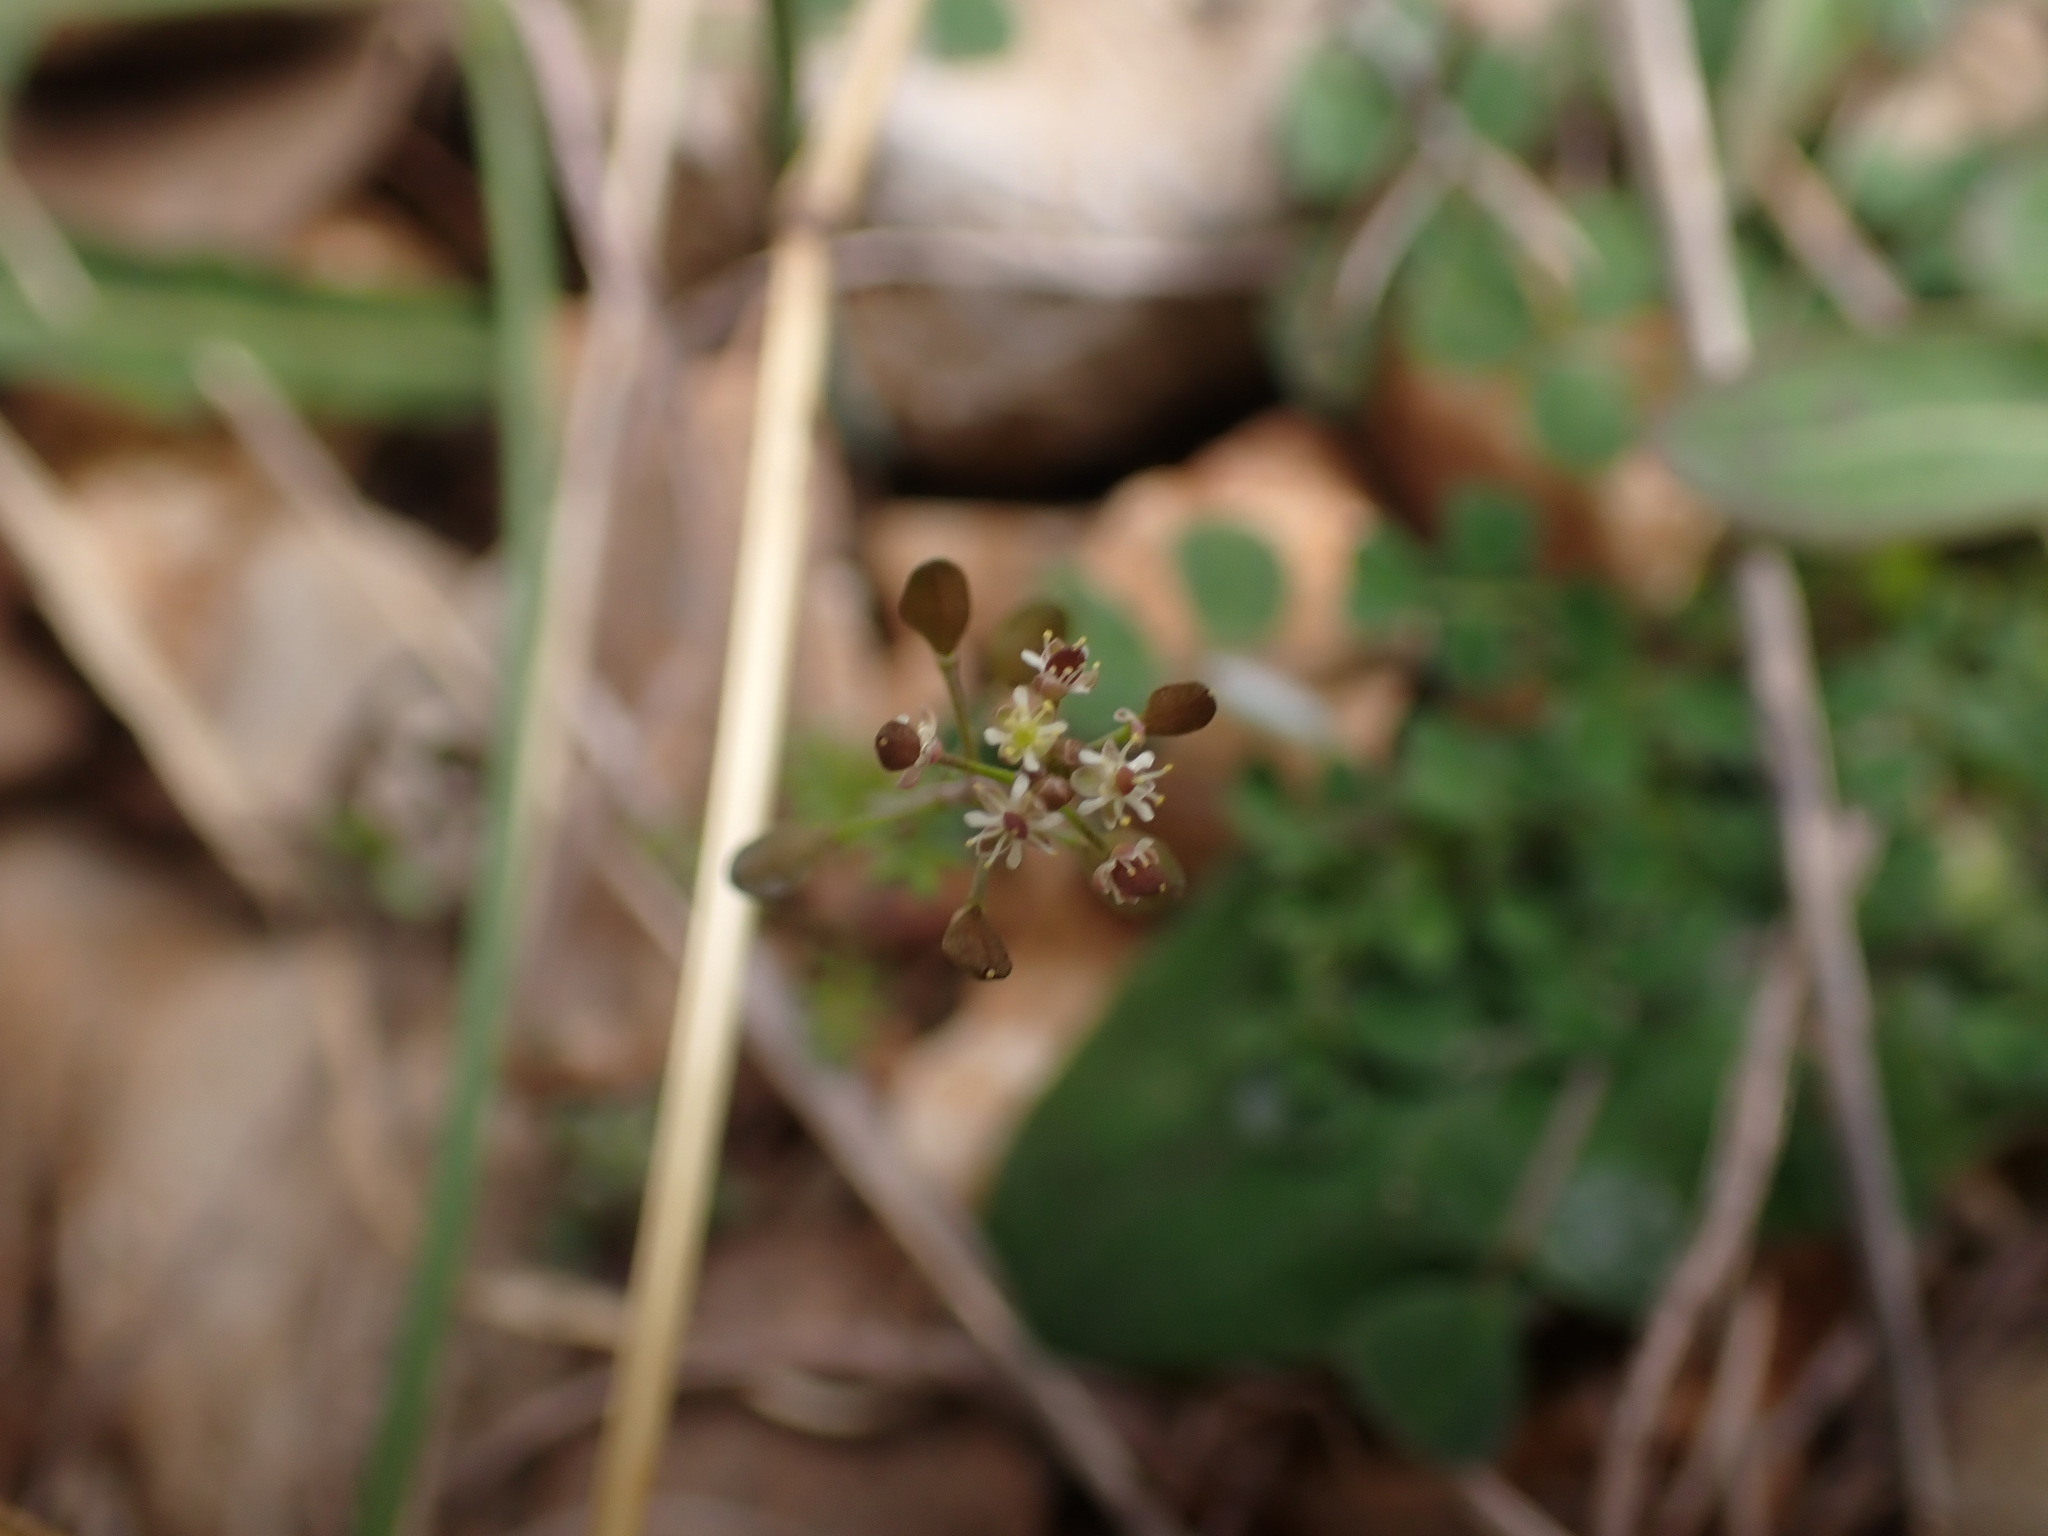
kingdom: Plantae
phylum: Tracheophyta
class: Magnoliopsida
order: Brassicales
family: Brassicaceae
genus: Hornungia
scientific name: Hornungia petraea
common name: Hutchinsia
